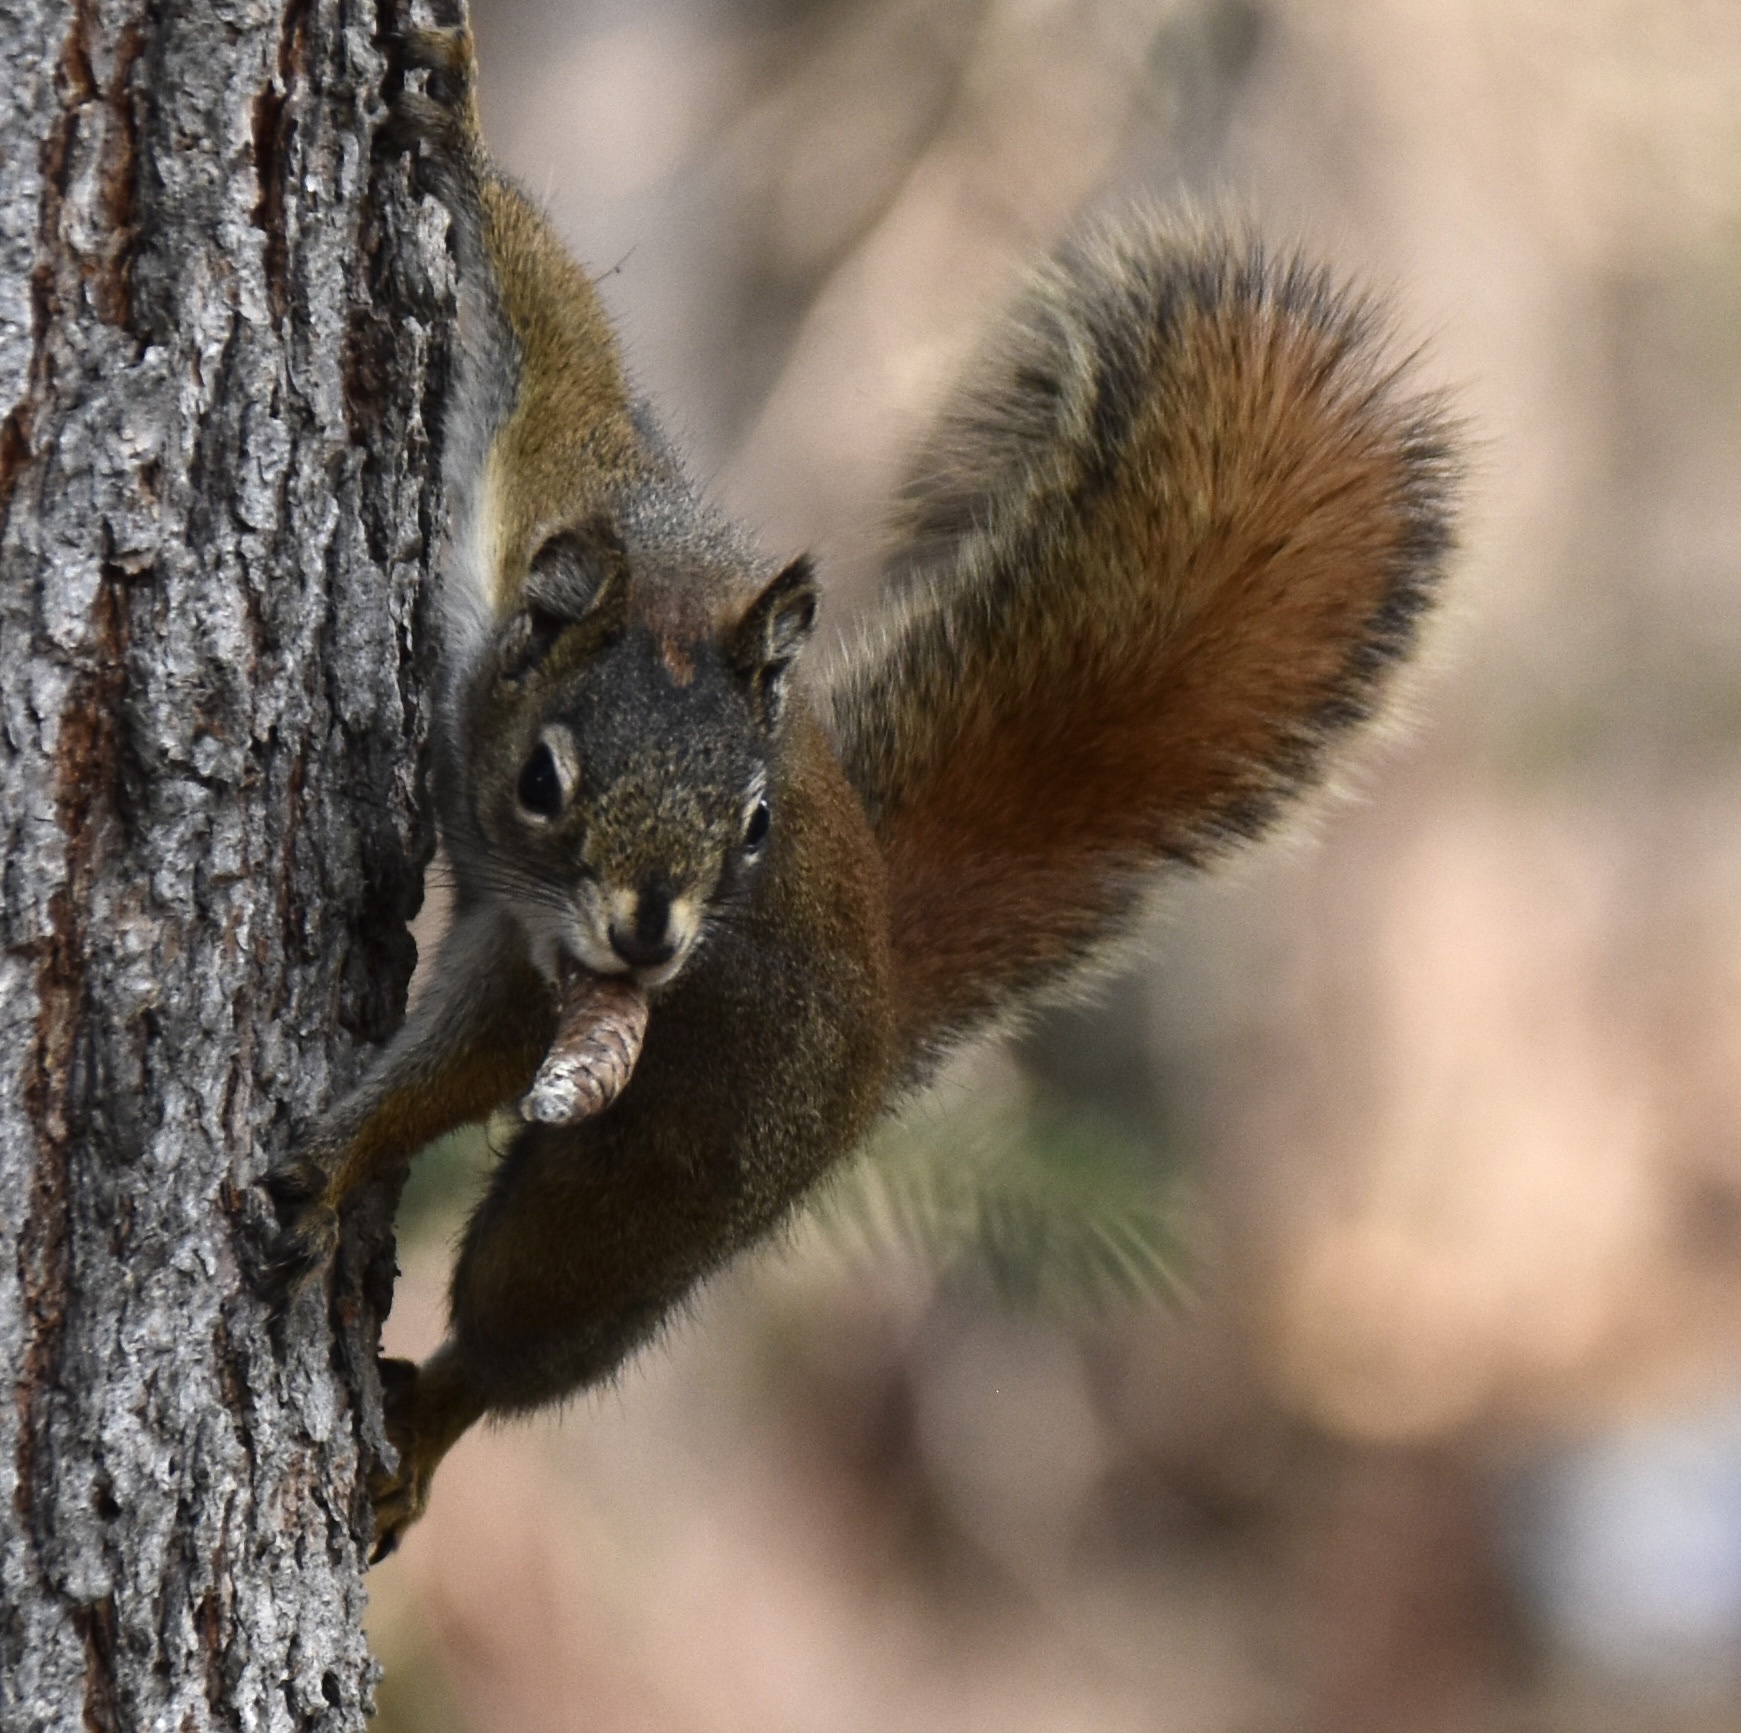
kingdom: Animalia
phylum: Chordata
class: Mammalia
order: Rodentia
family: Sciuridae
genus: Tamiasciurus
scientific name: Tamiasciurus hudsonicus
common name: Red squirrel
